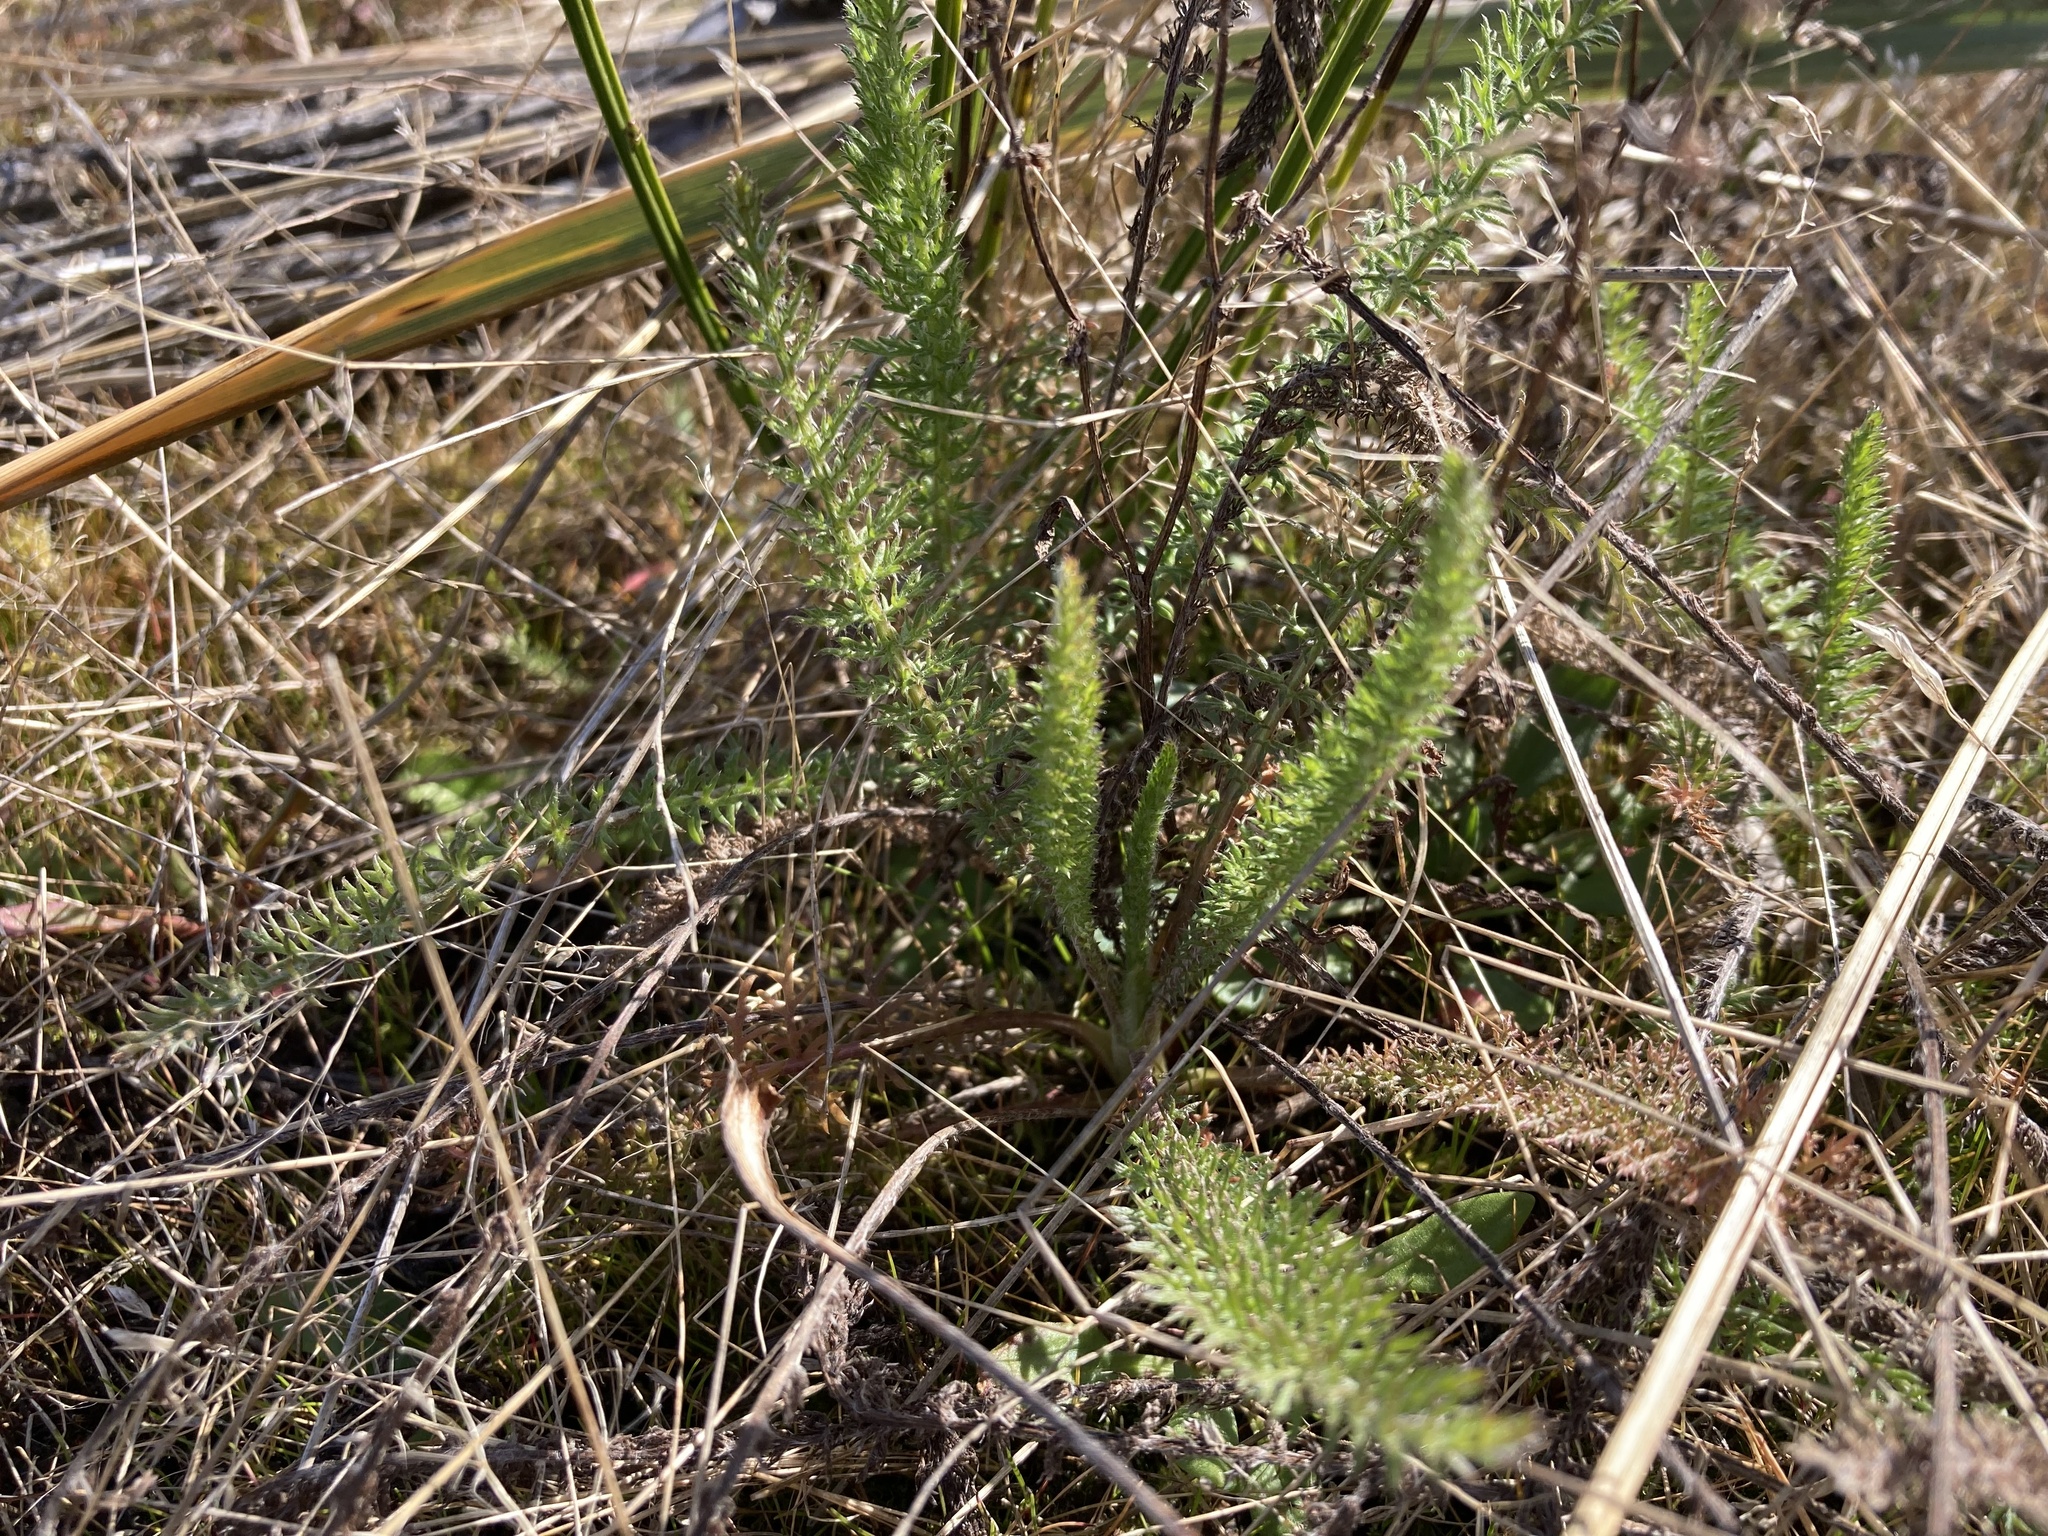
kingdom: Plantae
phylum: Tracheophyta
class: Magnoliopsida
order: Asterales
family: Asteraceae
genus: Achillea
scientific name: Achillea millefolium
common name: Yarrow
